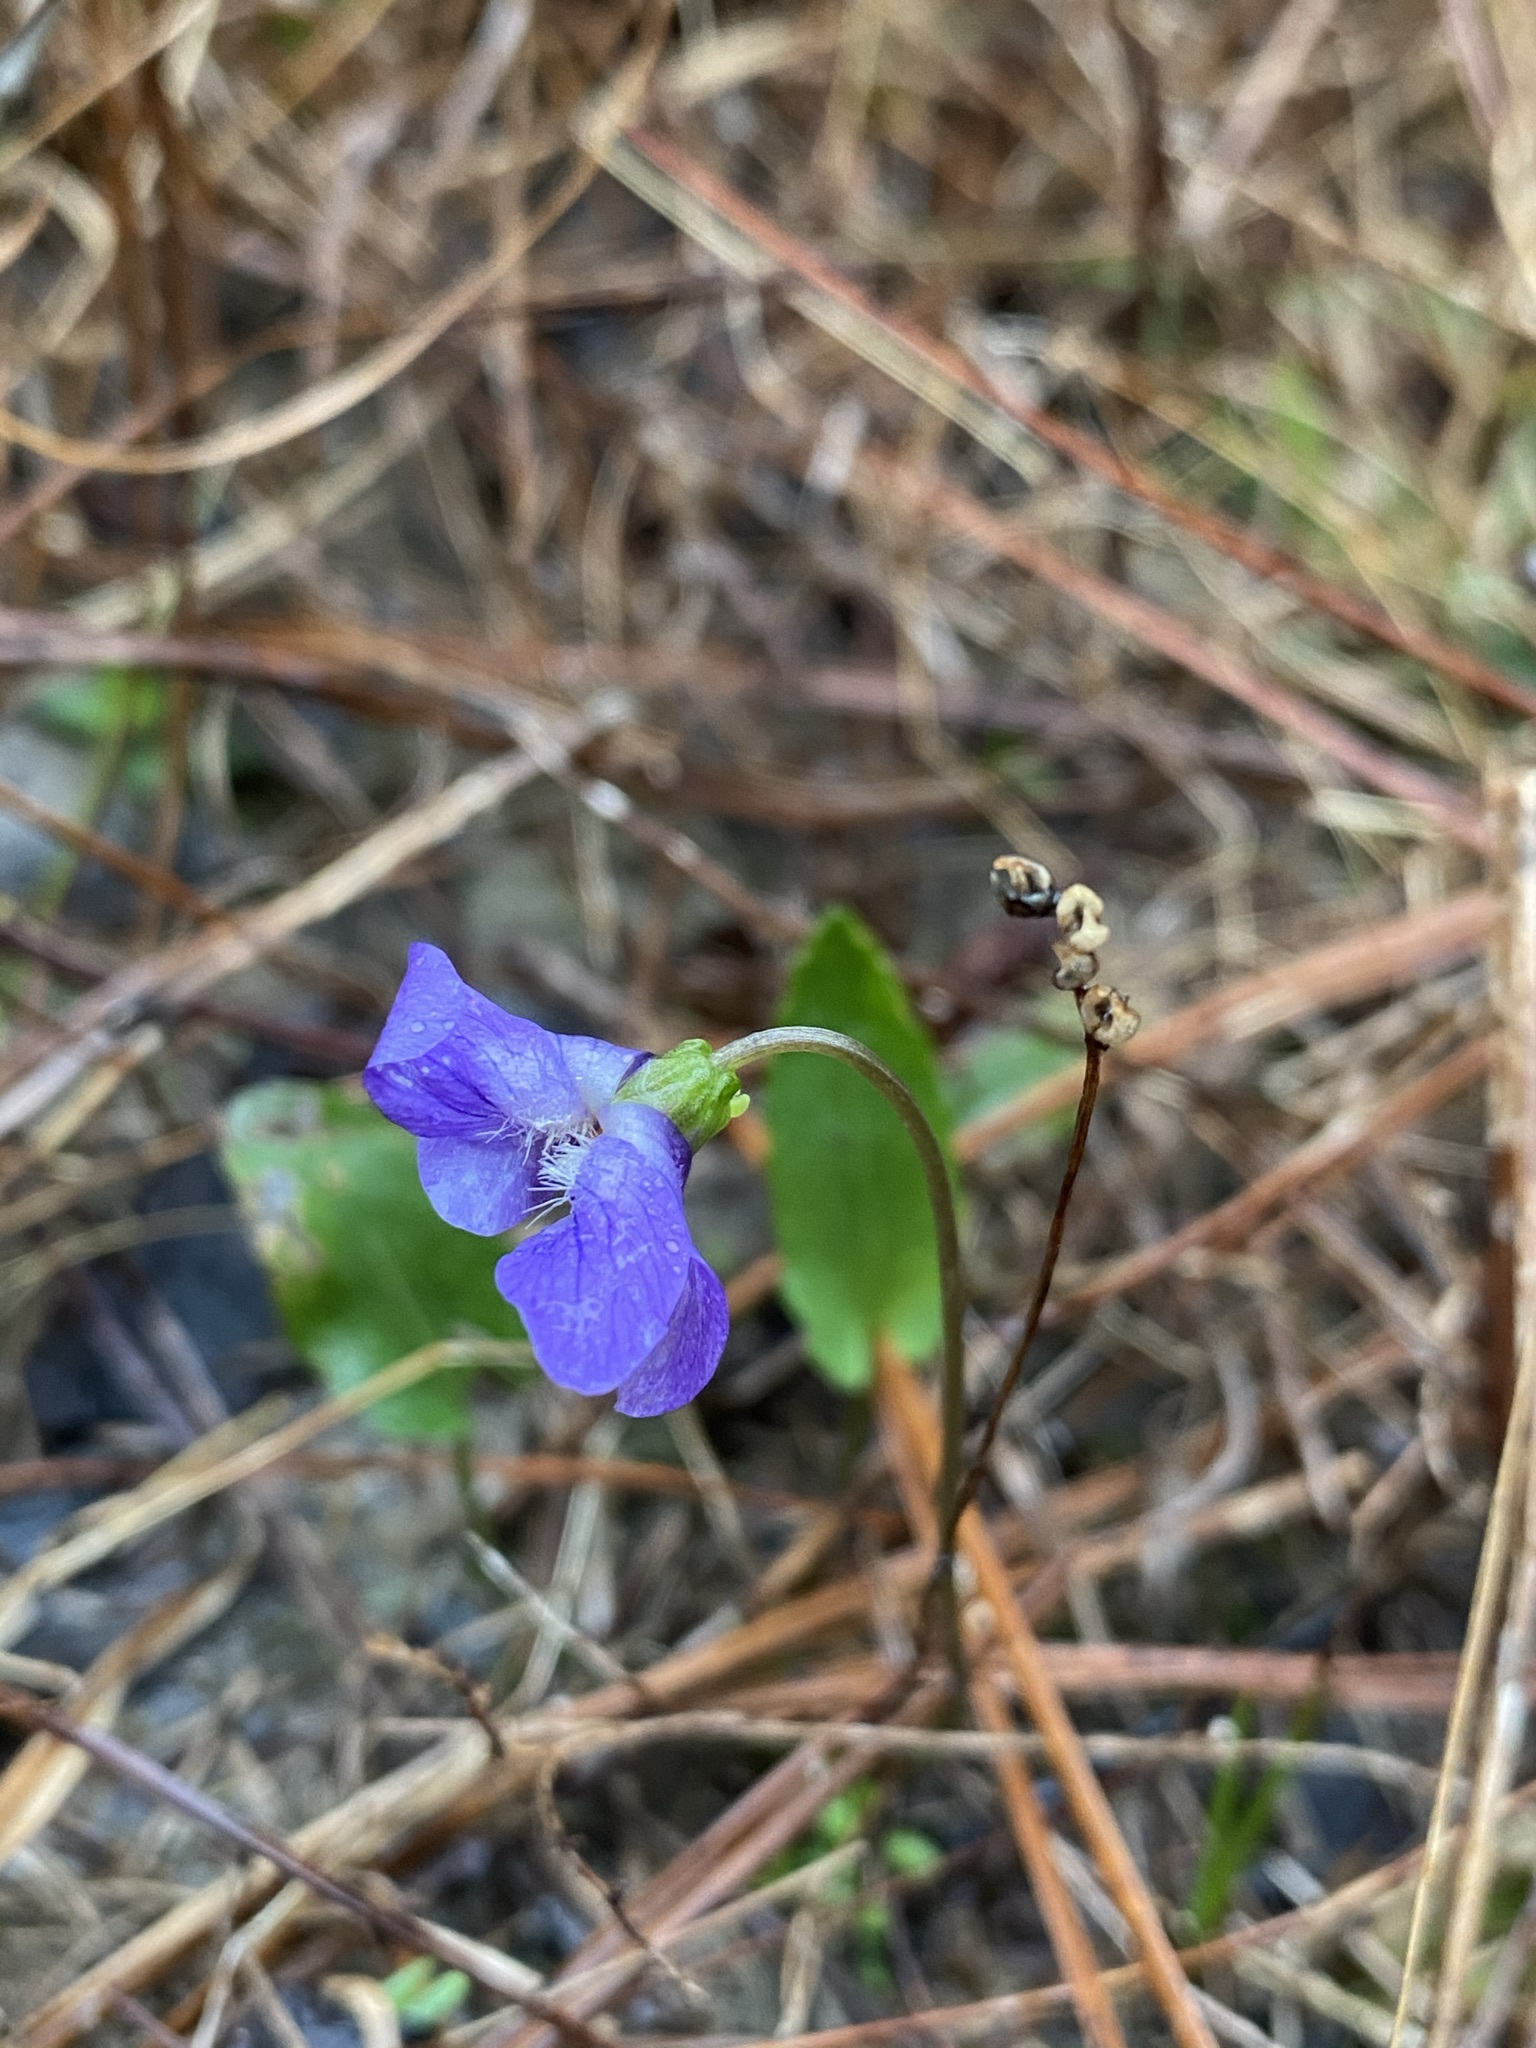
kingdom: Plantae
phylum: Tracheophyta
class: Magnoliopsida
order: Malpighiales
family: Violaceae
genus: Viola
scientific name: Viola sagittata
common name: Arrowhead violet
